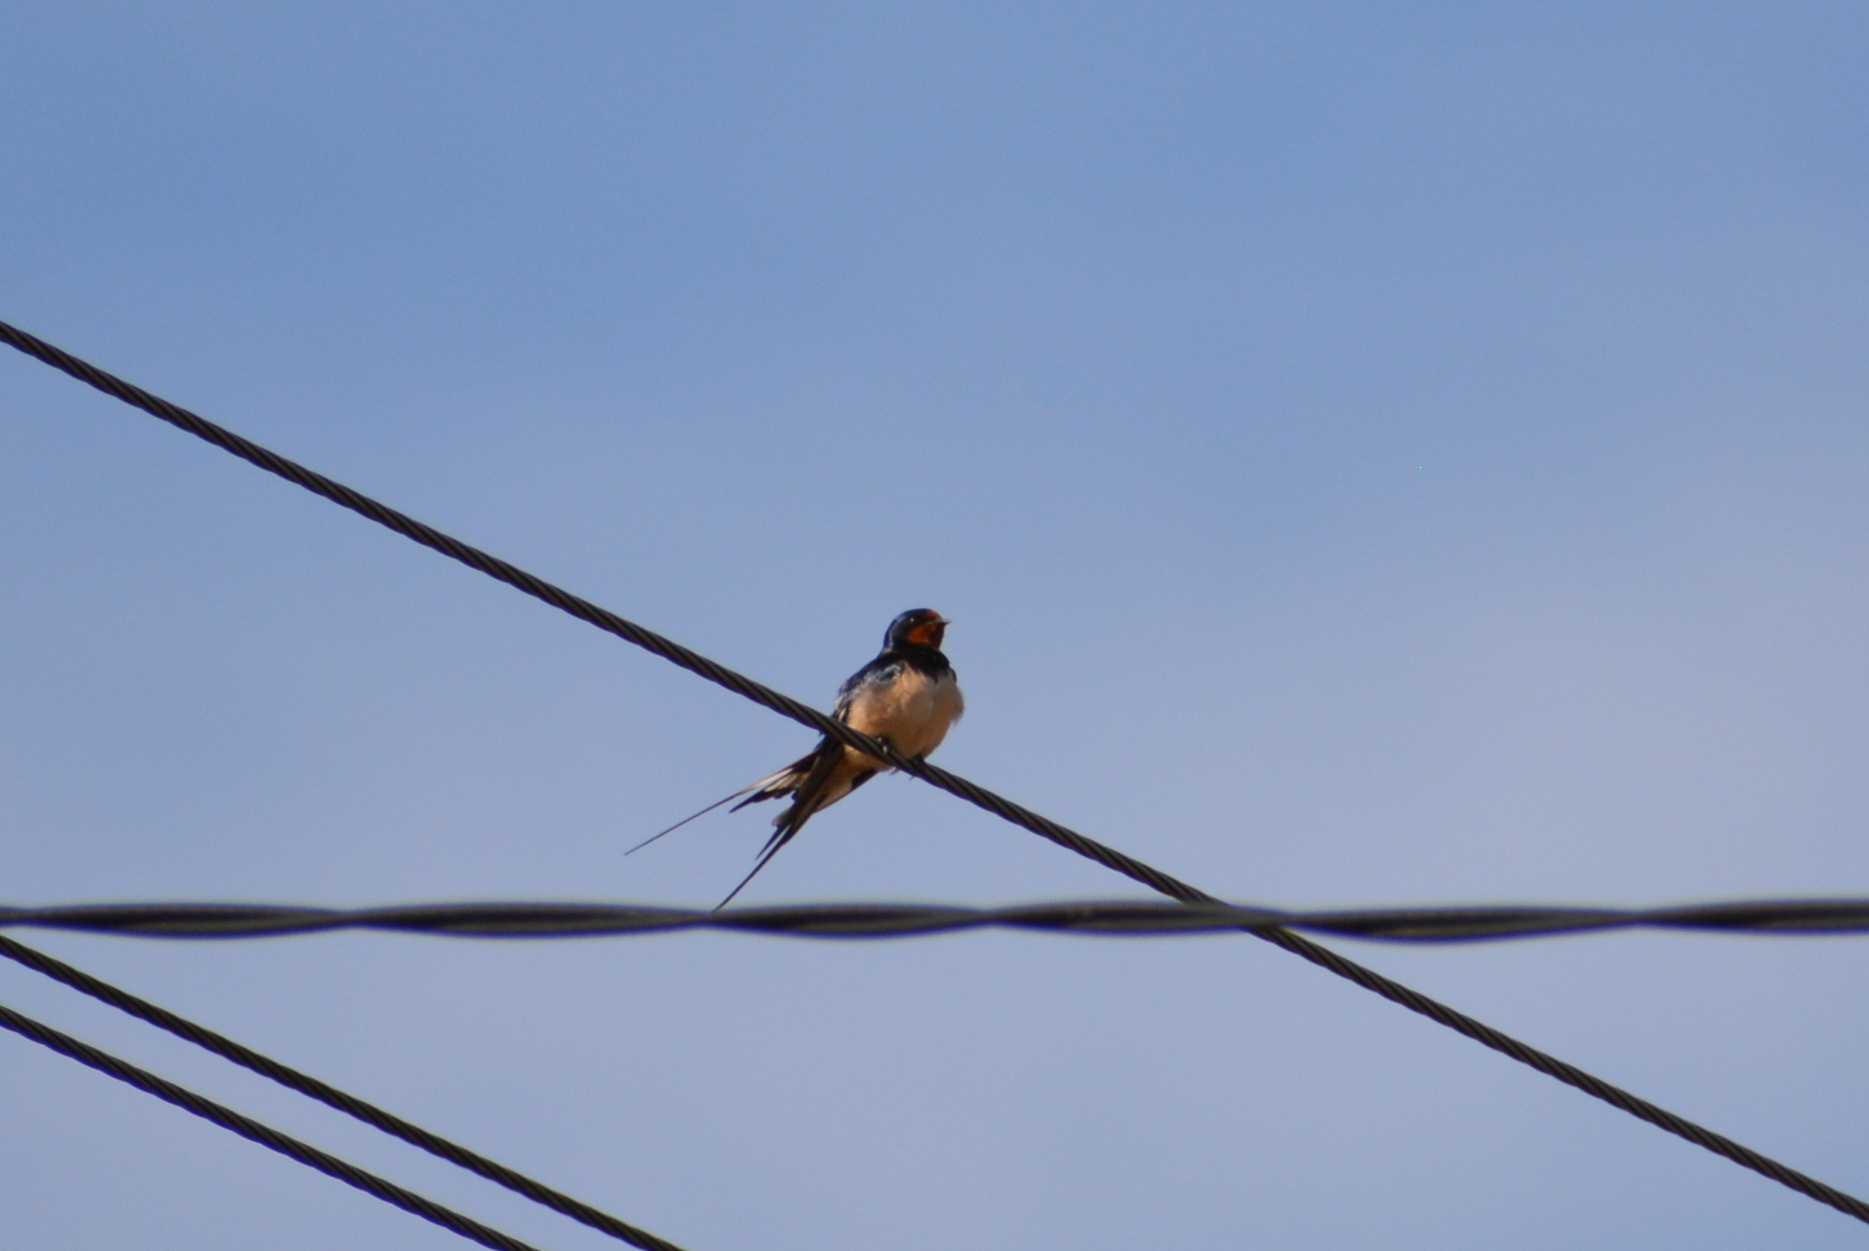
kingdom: Animalia
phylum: Chordata
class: Aves
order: Passeriformes
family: Hirundinidae
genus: Hirundo
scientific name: Hirundo rustica
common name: Barn swallow
